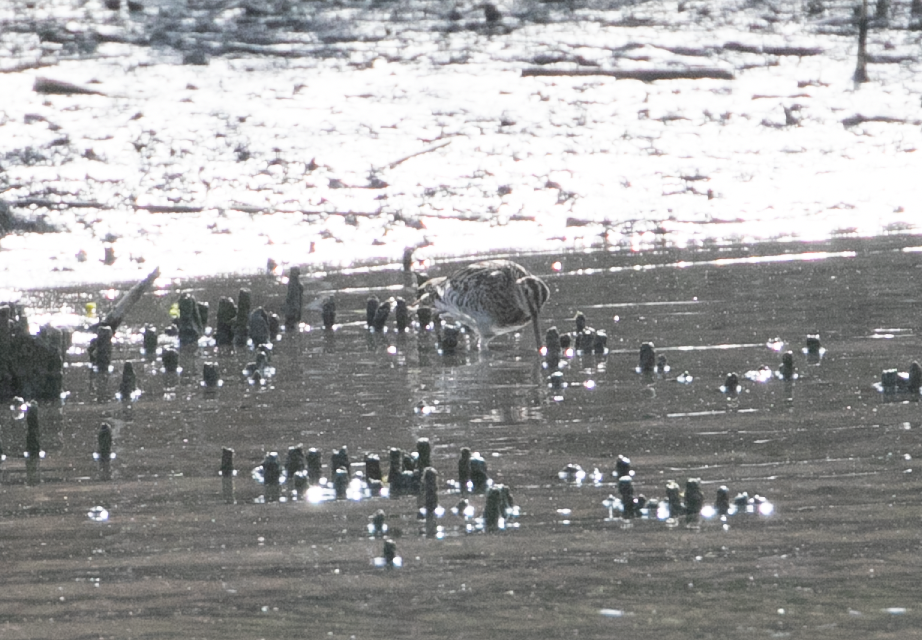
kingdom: Animalia
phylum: Chordata
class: Aves
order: Charadriiformes
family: Scolopacidae
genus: Gallinago
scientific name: Gallinago gallinago
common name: Common snipe
